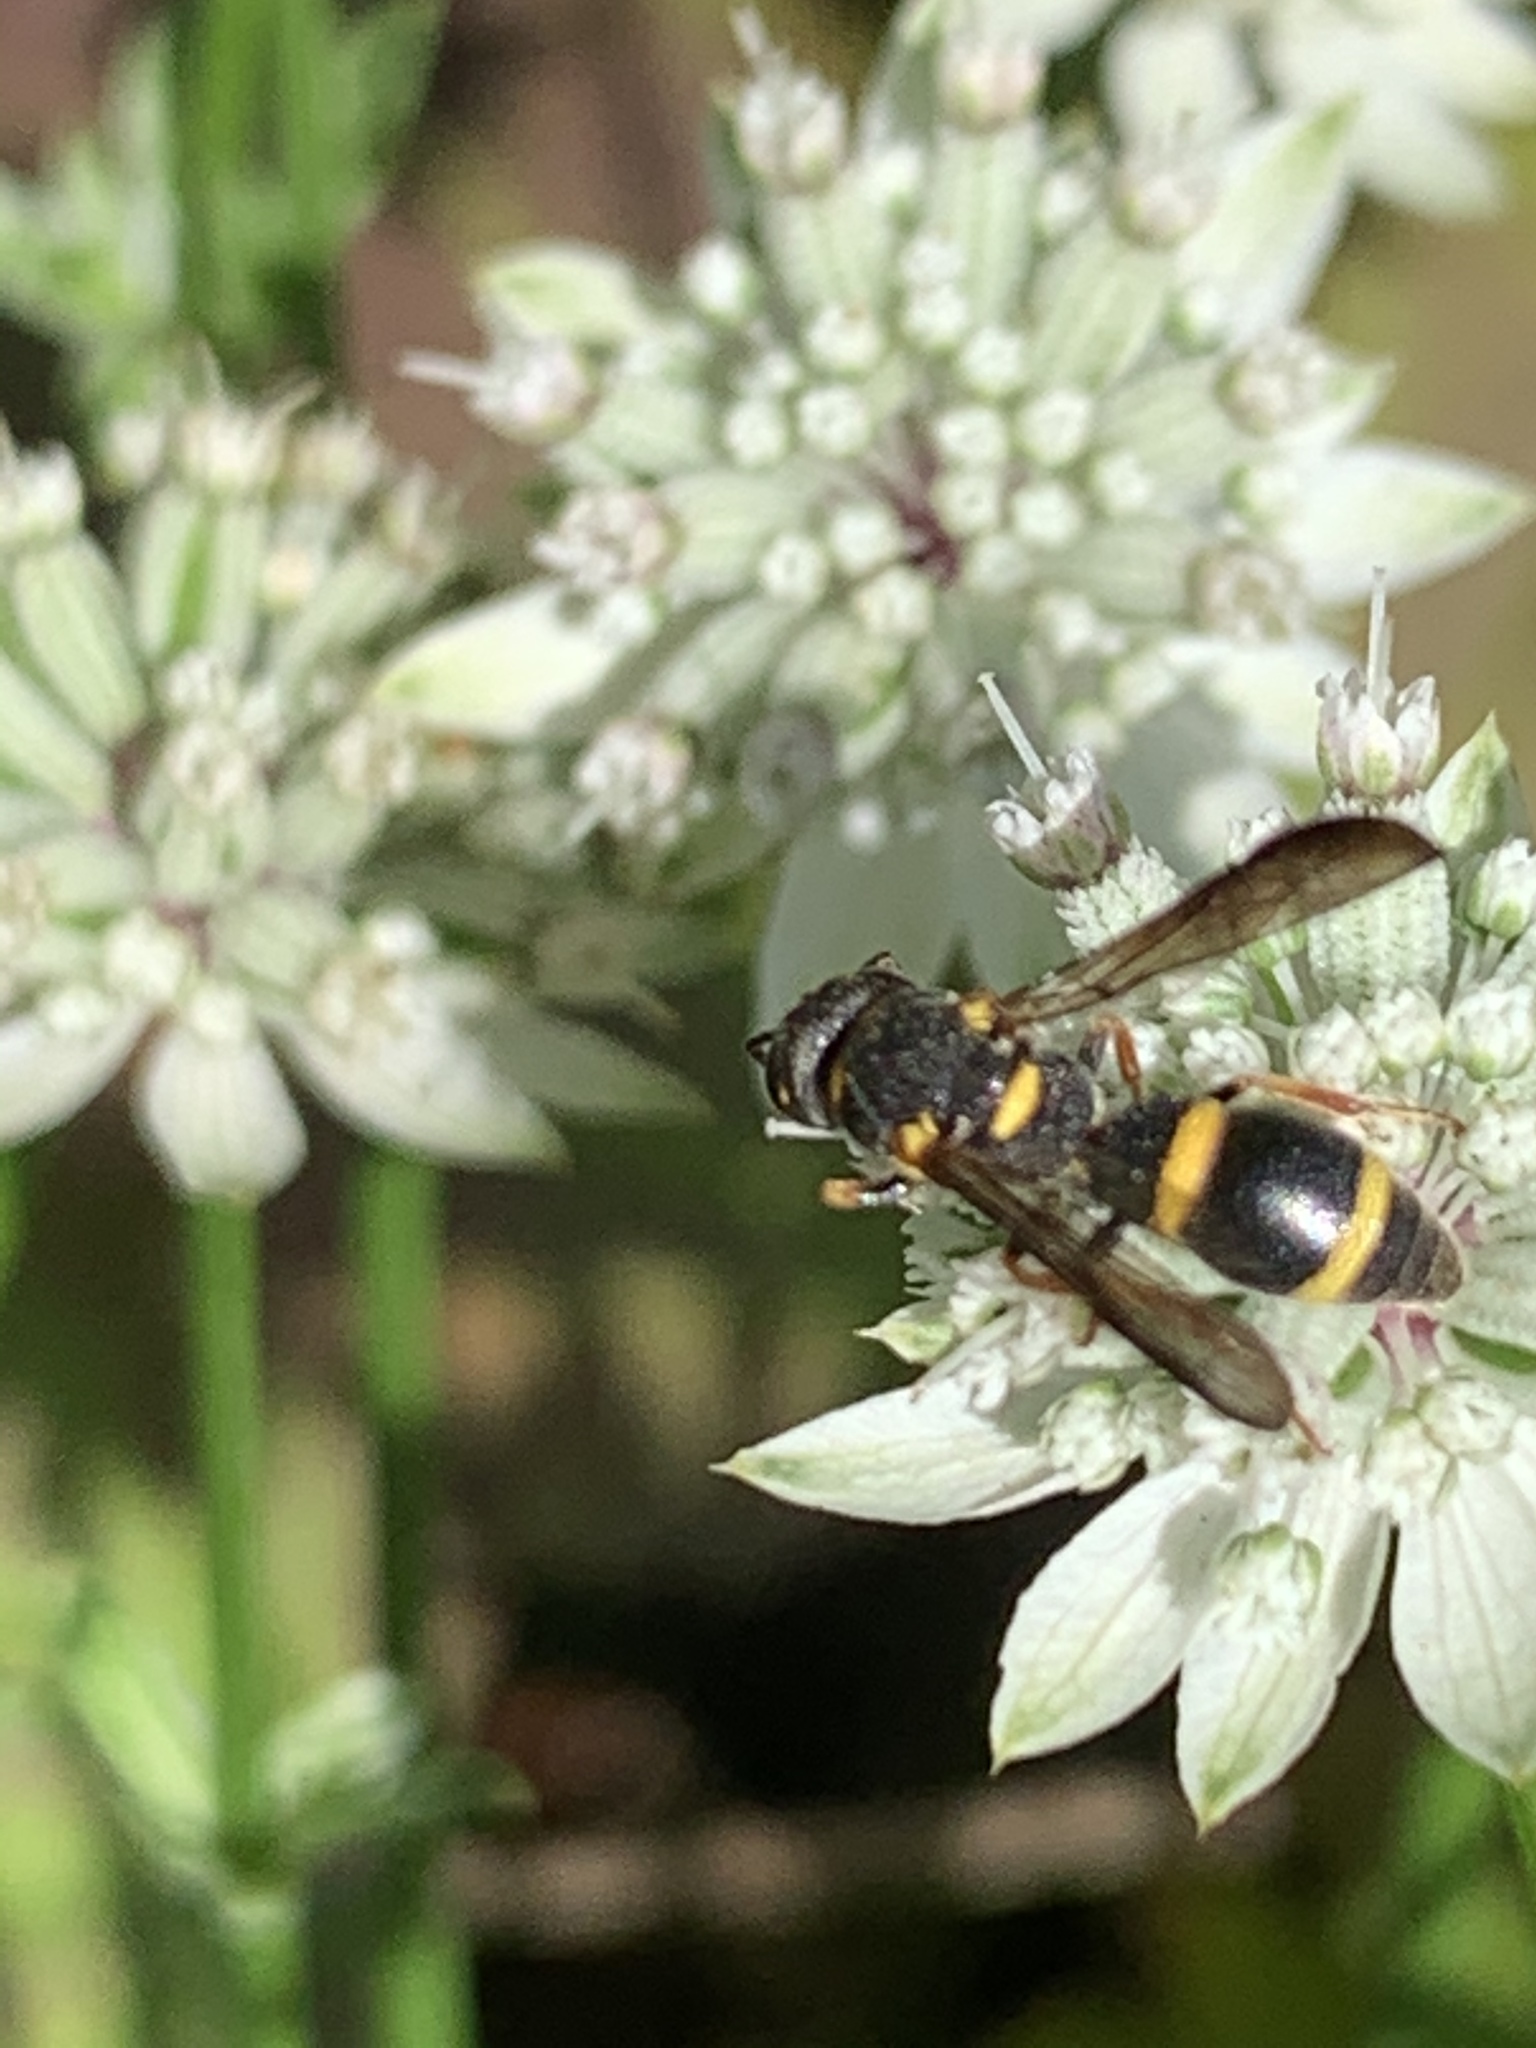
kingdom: Animalia
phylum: Arthropoda
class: Insecta
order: Hymenoptera
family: Eumenidae
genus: Parancistrocerus
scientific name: Parancistrocerus perennis
